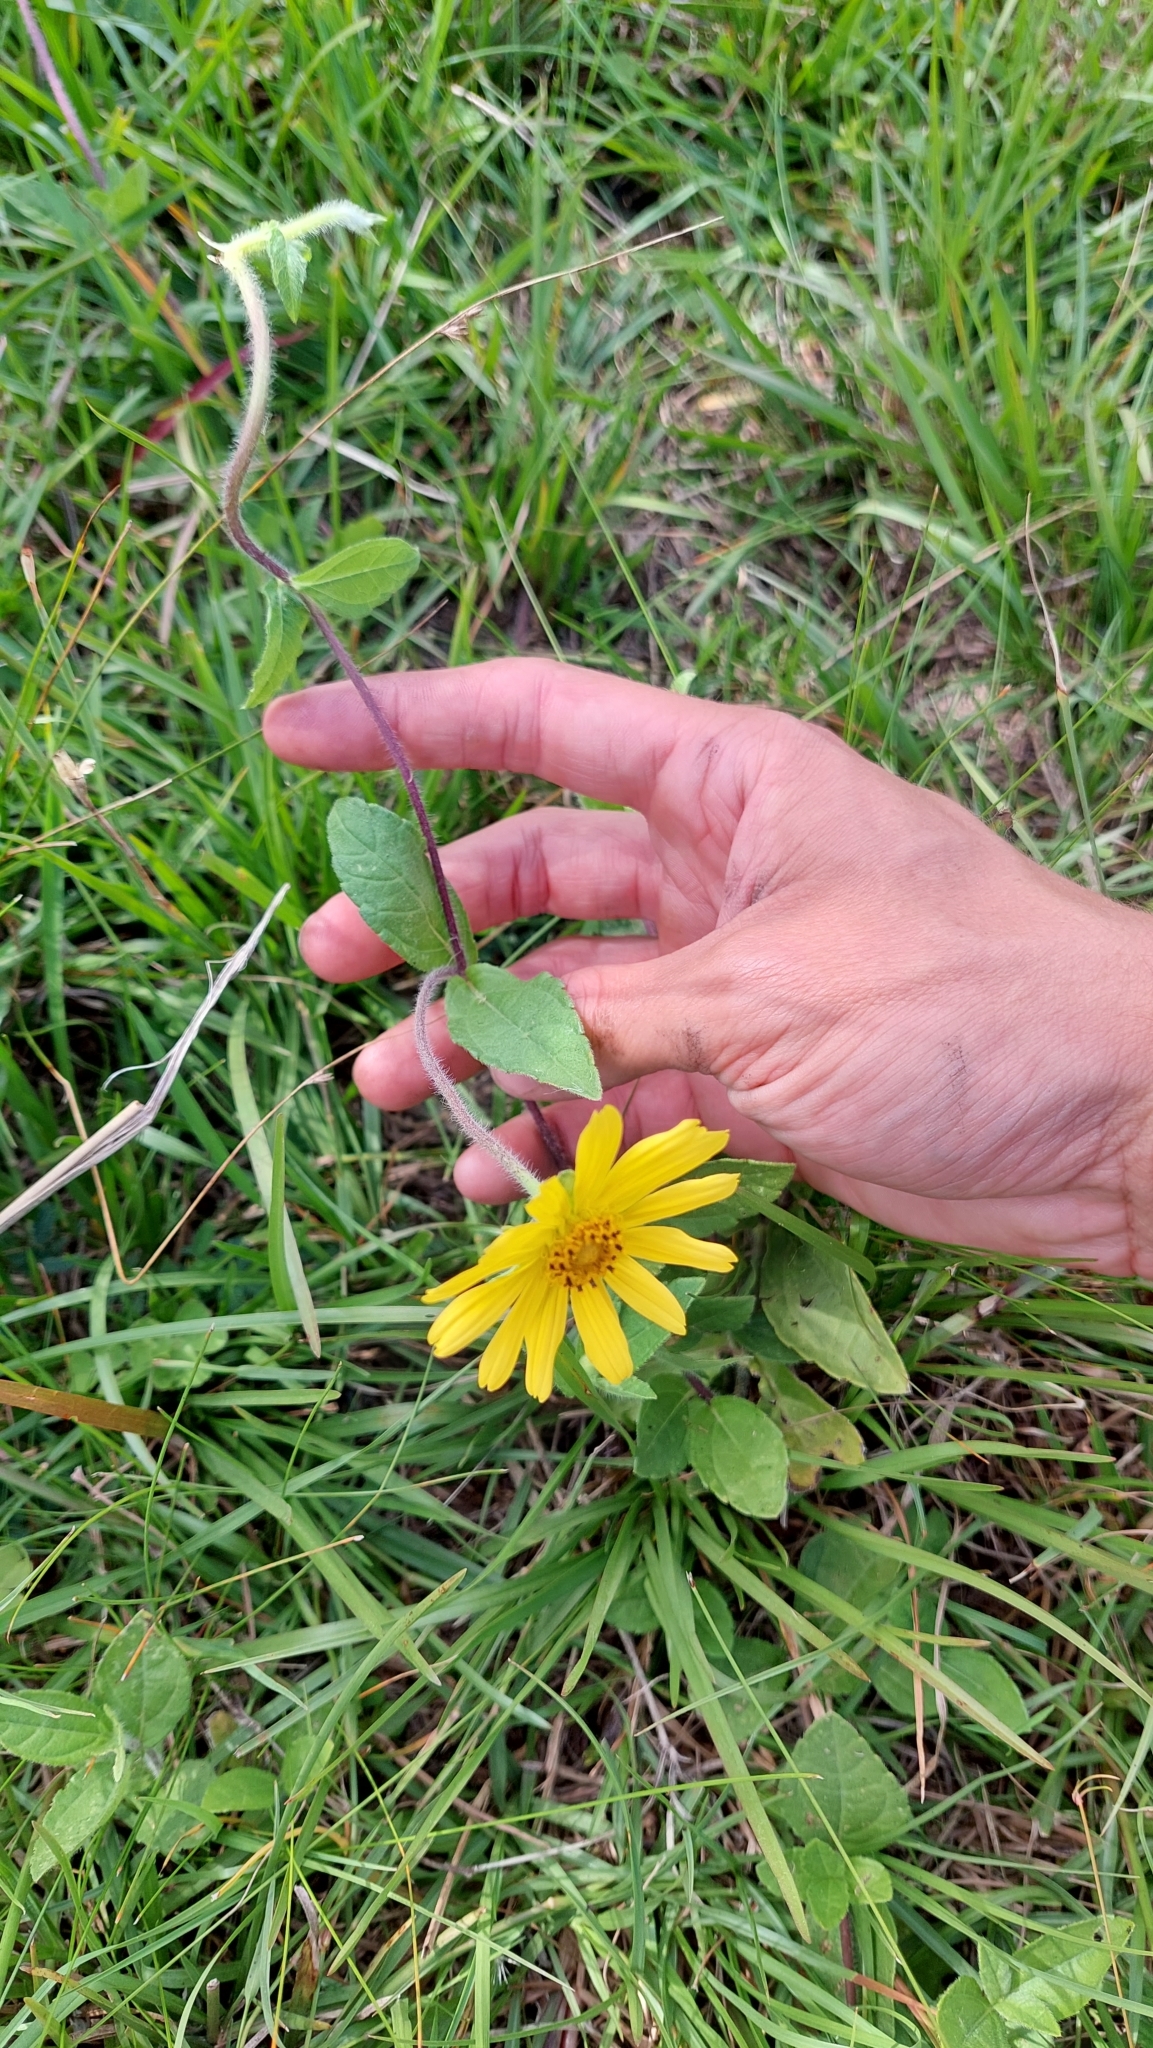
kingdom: Plantae
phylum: Tracheophyta
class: Magnoliopsida
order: Asterales
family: Asteraceae
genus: Calea
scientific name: Calea uniflora
